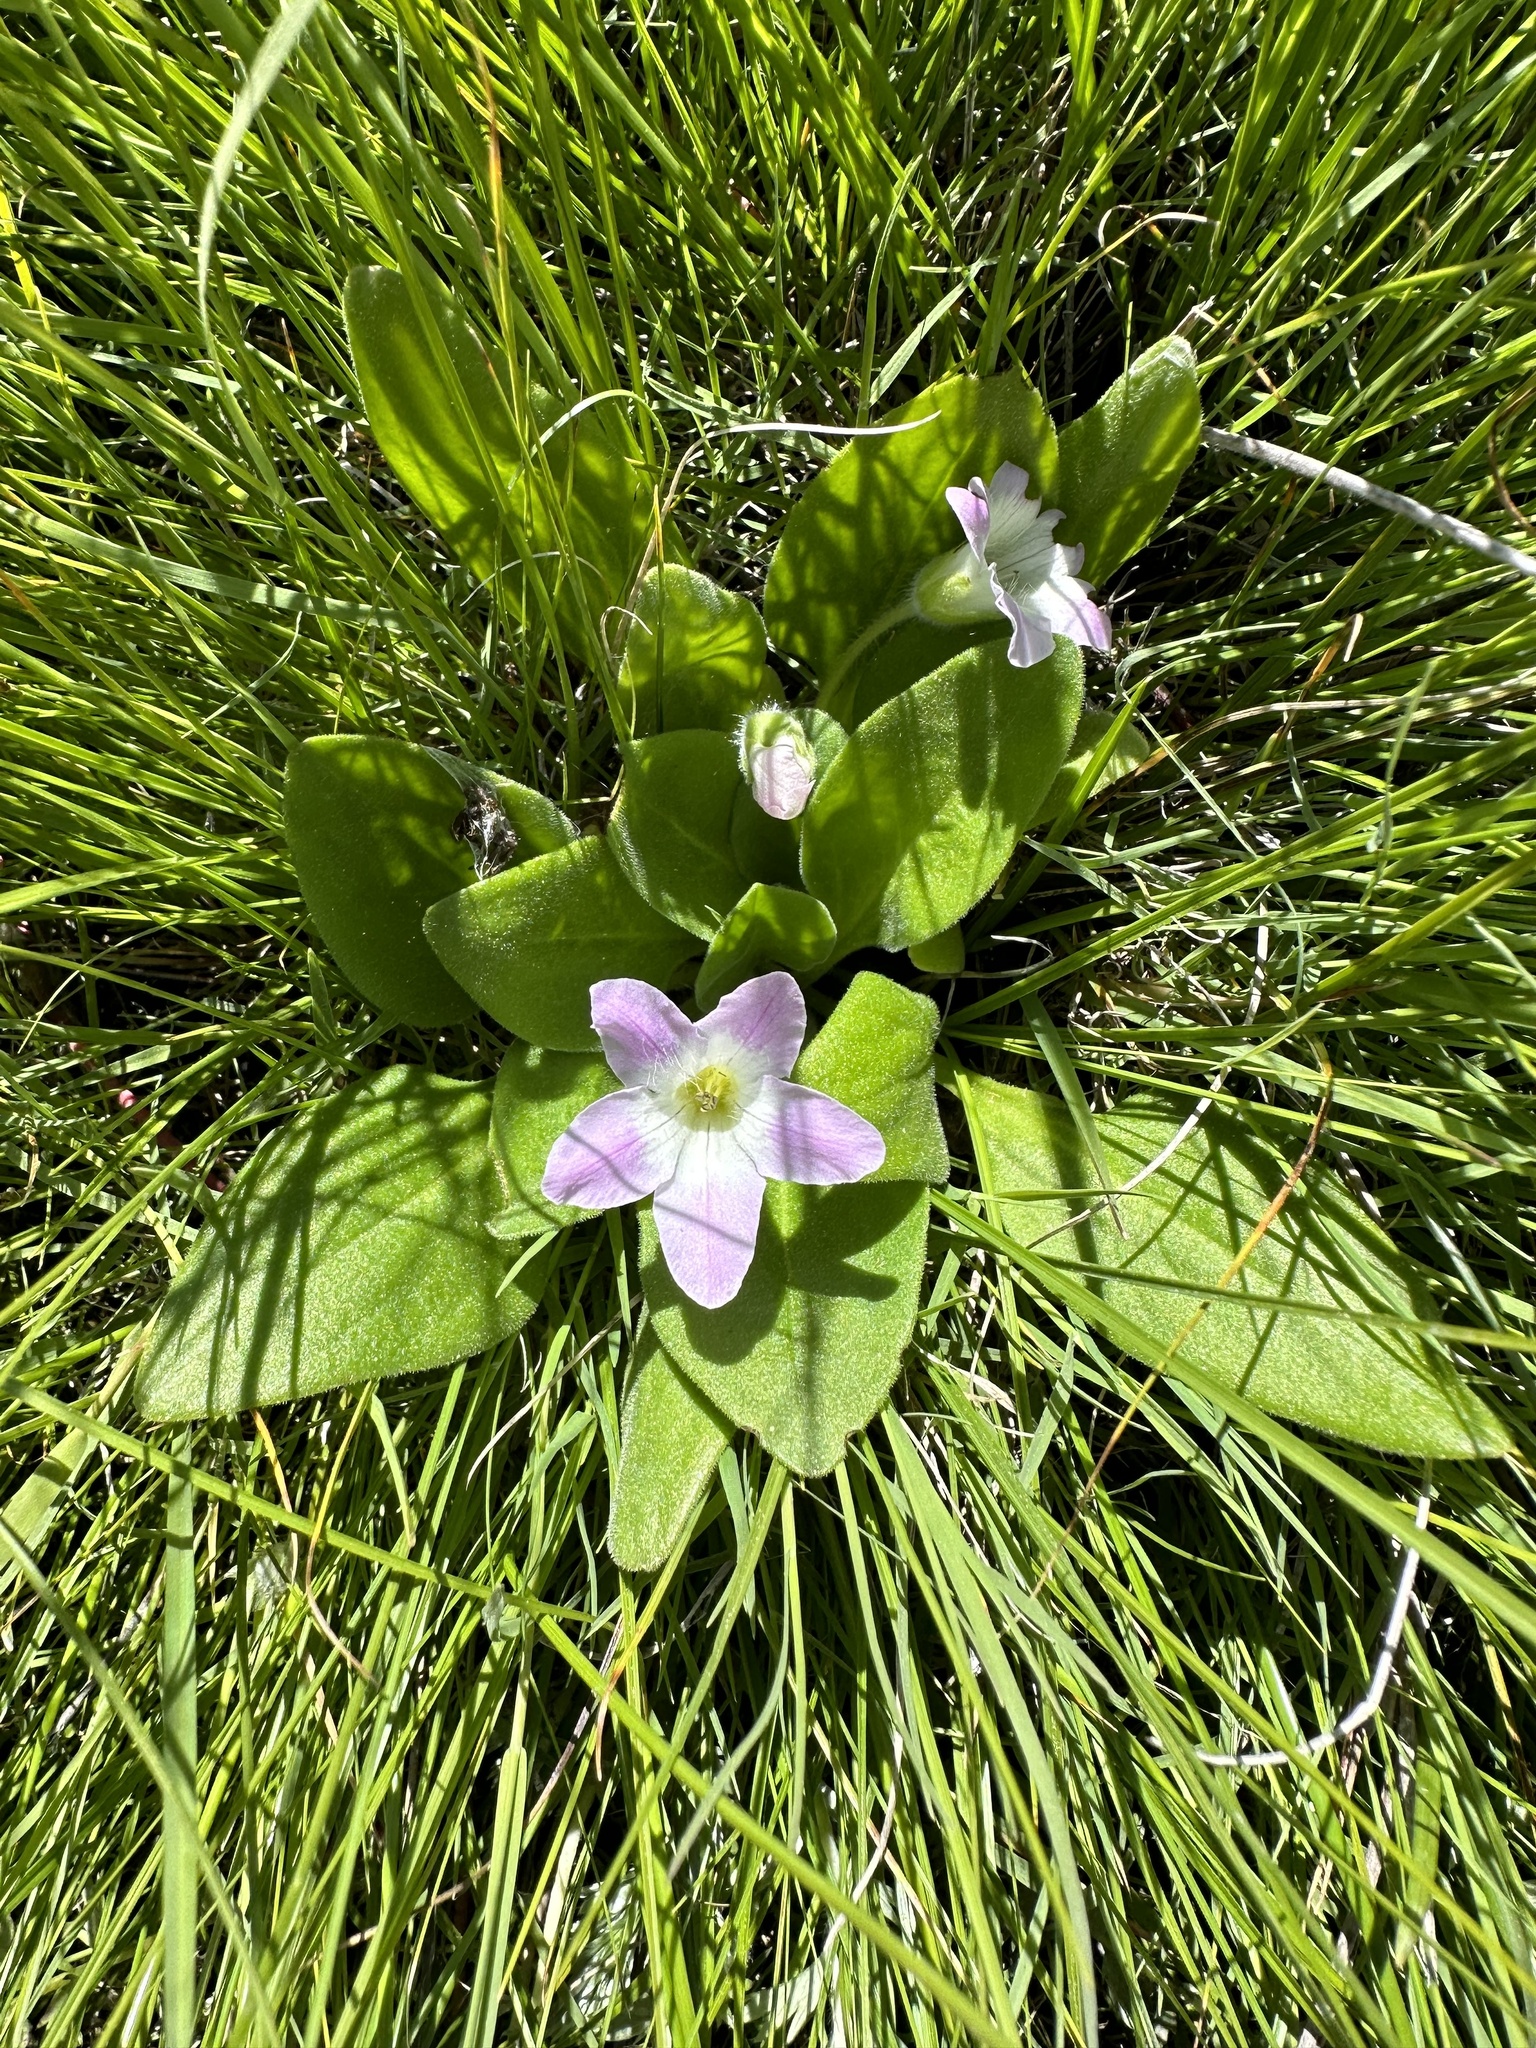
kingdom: Plantae
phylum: Tracheophyta
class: Magnoliopsida
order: Boraginales
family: Hydrophyllaceae
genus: Hesperochiron
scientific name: Hesperochiron californicus
